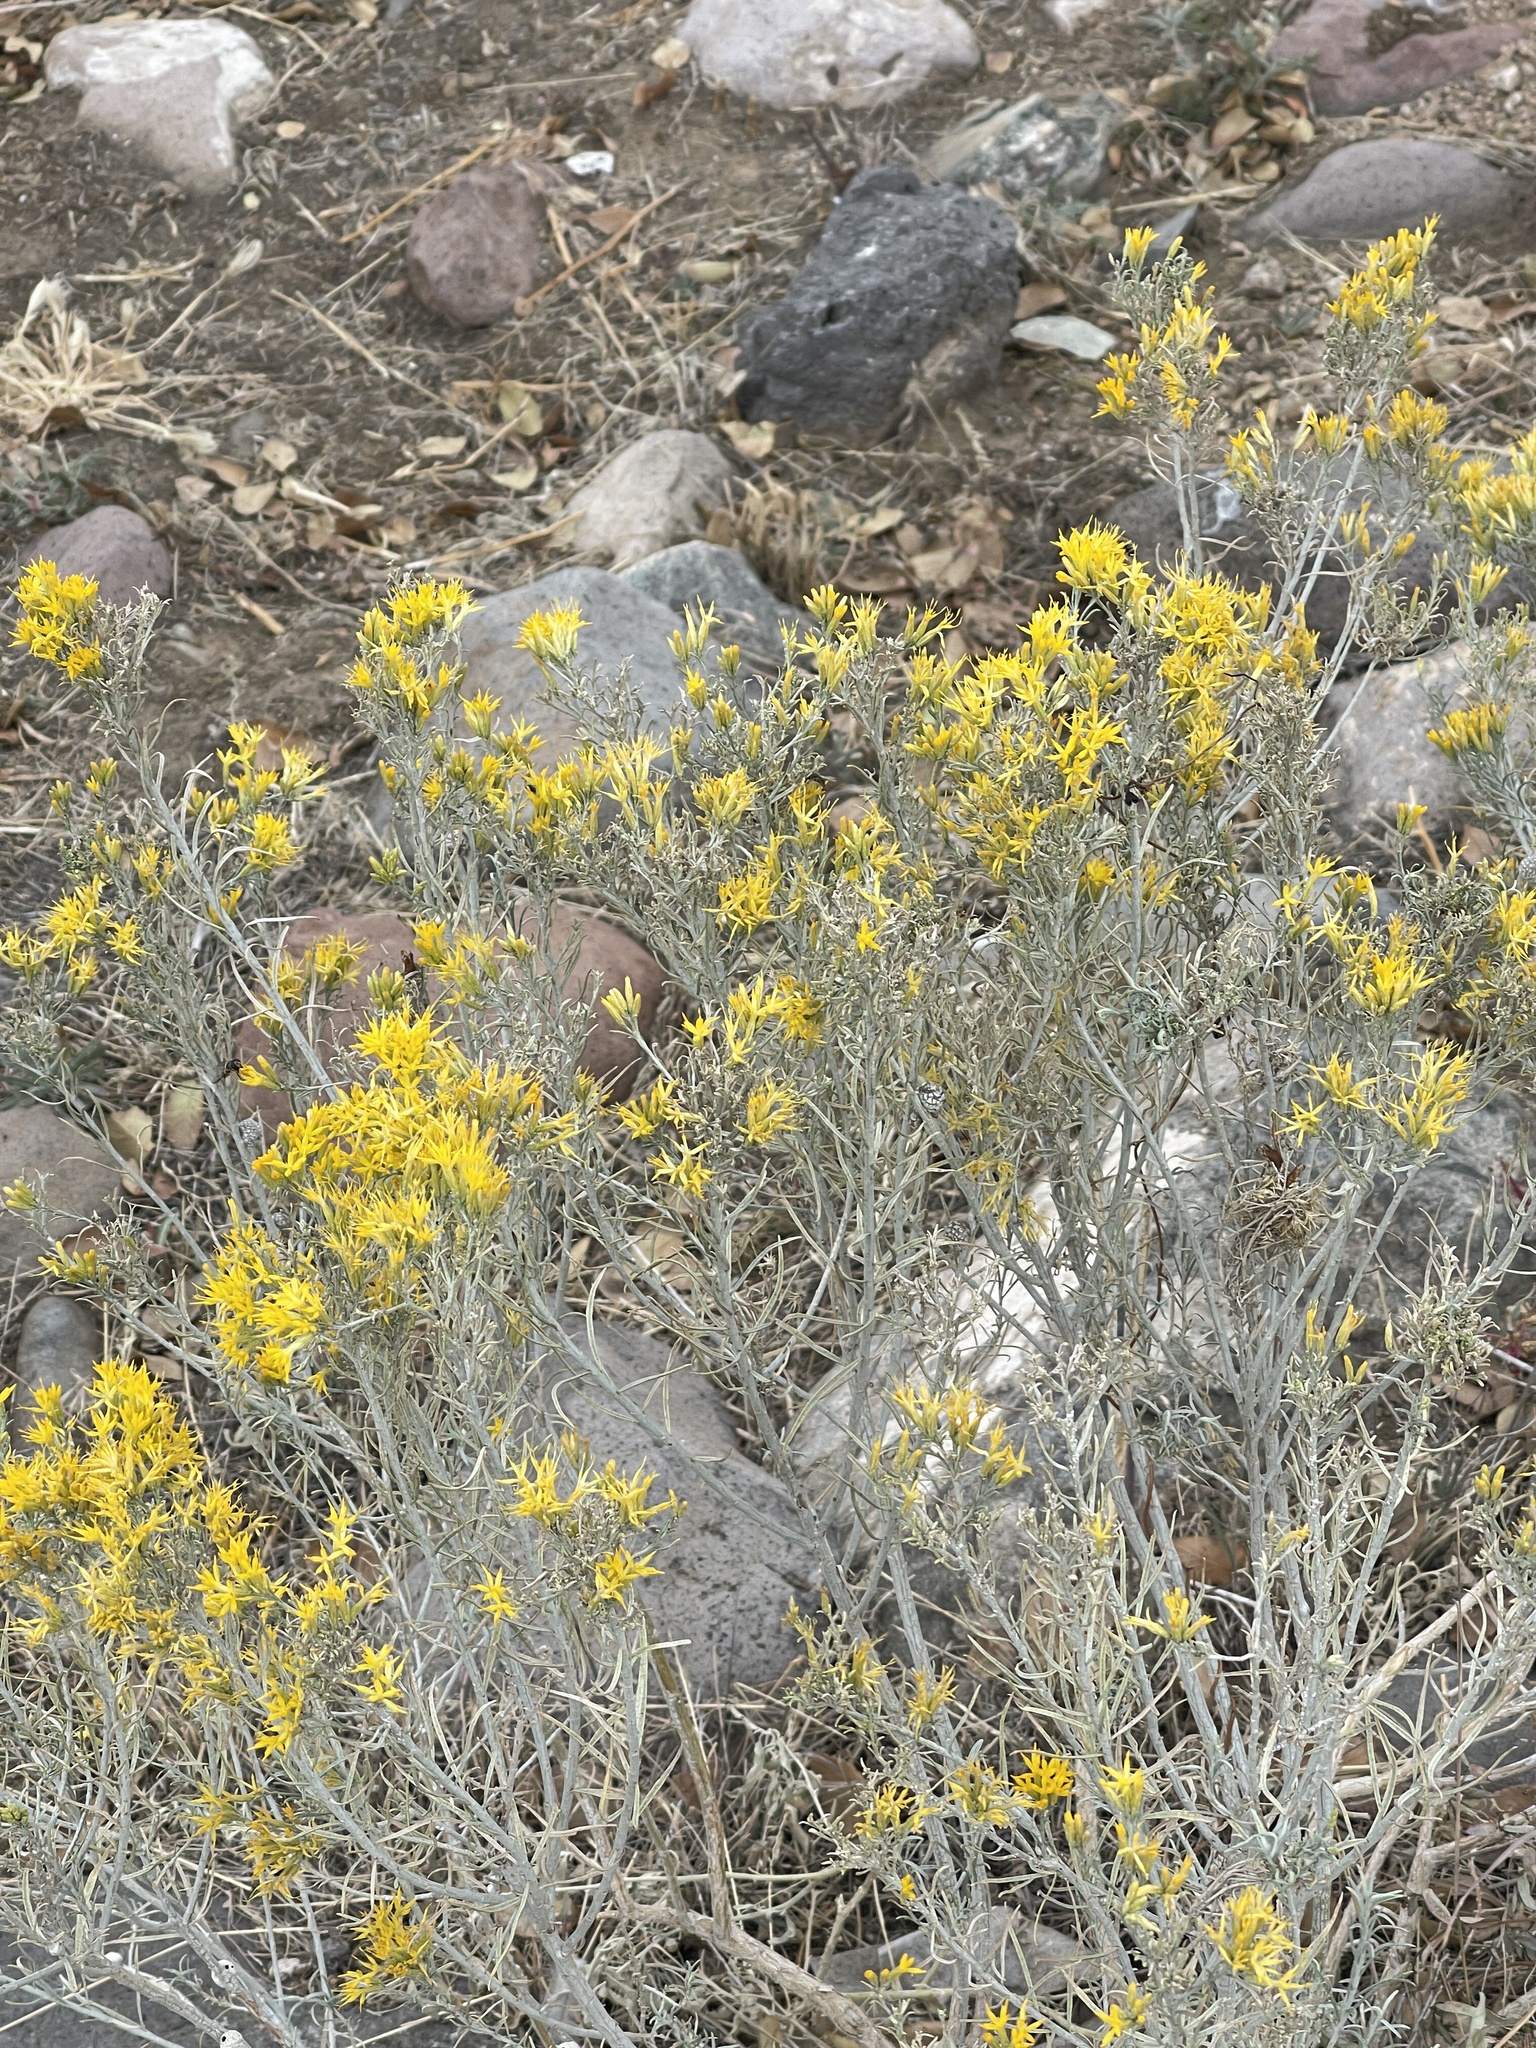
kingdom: Plantae
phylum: Tracheophyta
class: Magnoliopsida
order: Asterales
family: Asteraceae
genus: Ericameria
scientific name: Ericameria nauseosa
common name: Rubber rabbitbrush
